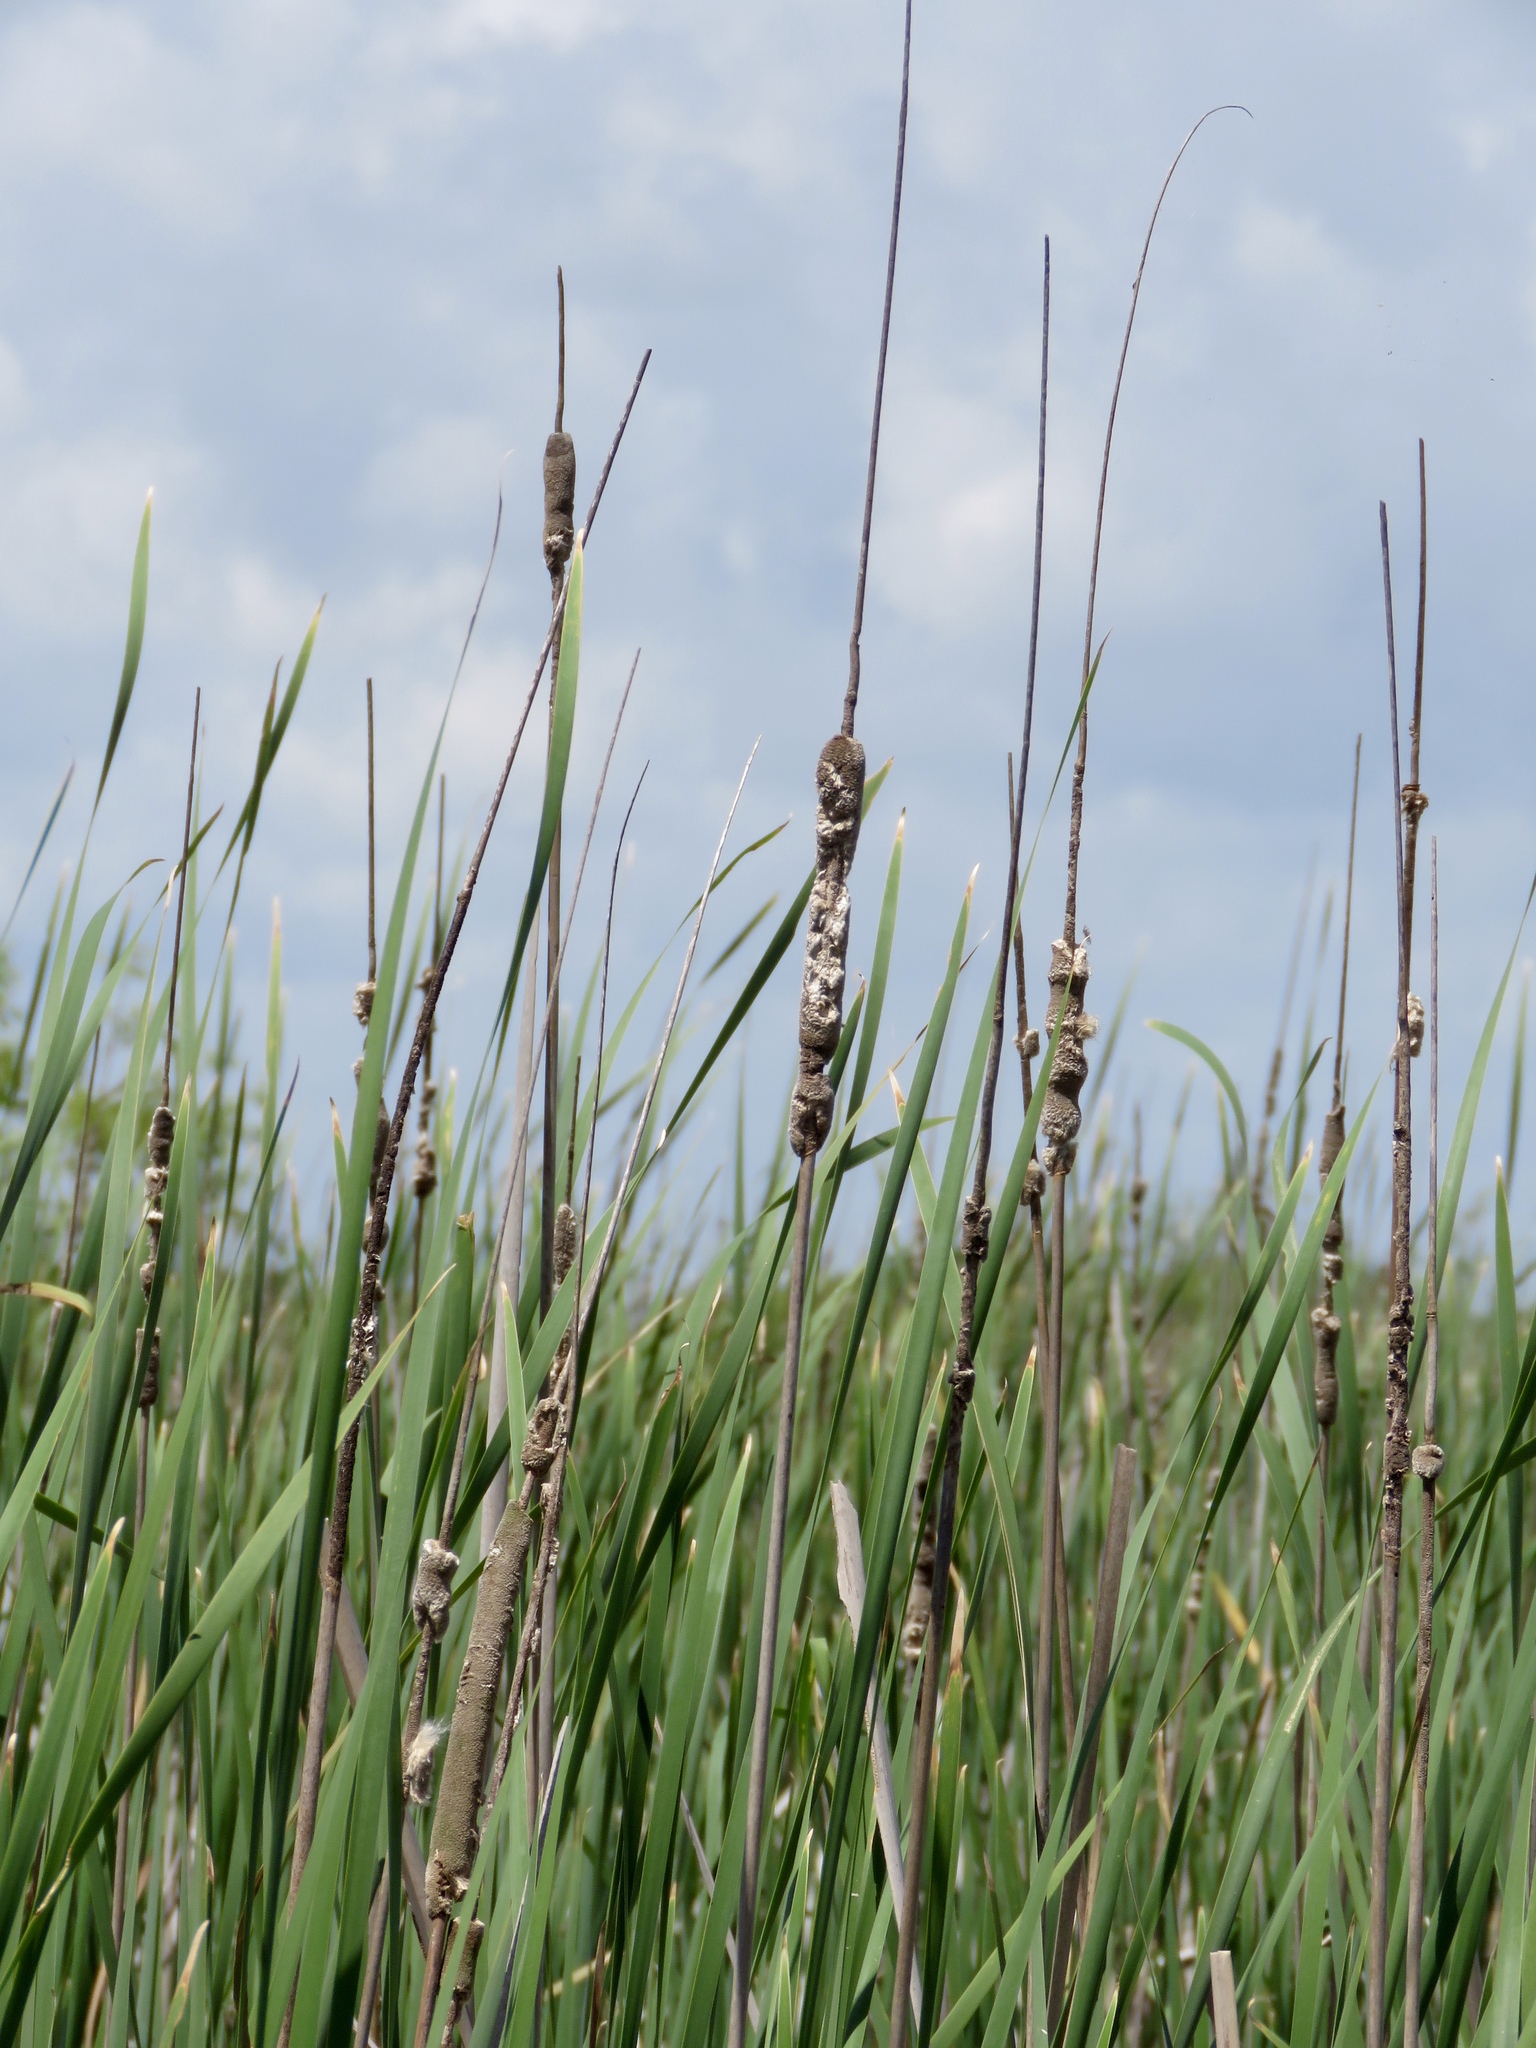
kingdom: Plantae
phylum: Tracheophyta
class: Liliopsida
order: Poales
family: Typhaceae
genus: Typha
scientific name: Typha domingensis
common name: Southern cattail
